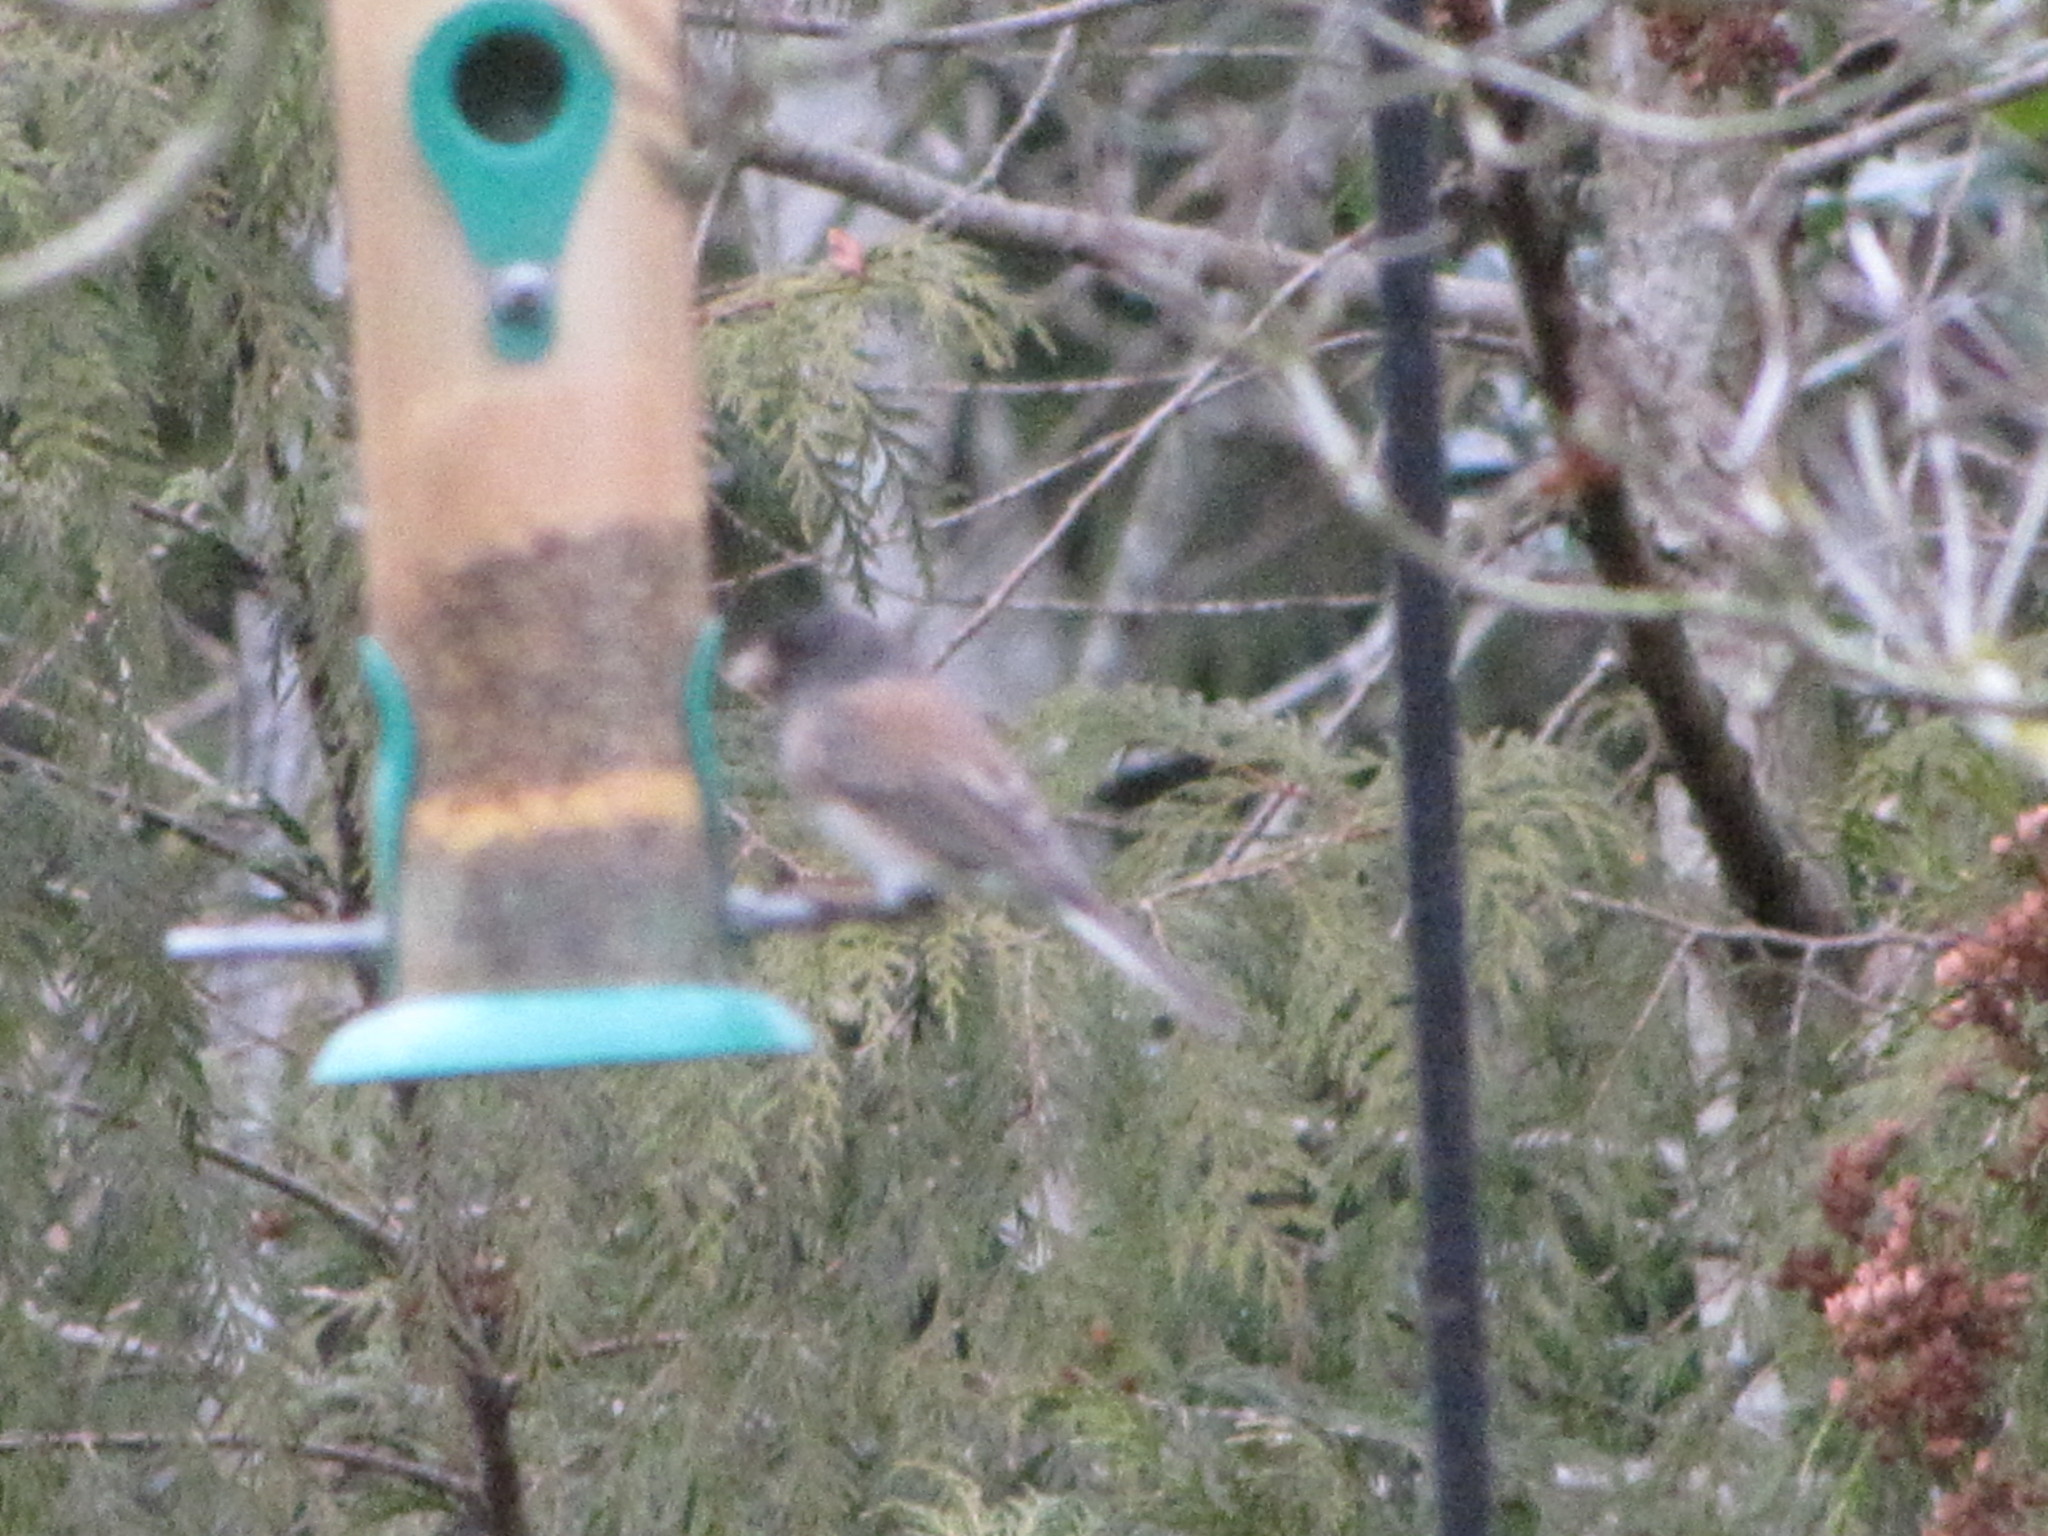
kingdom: Animalia
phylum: Chordata
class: Aves
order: Passeriformes
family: Passerellidae
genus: Junco
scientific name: Junco hyemalis
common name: Dark-eyed junco
